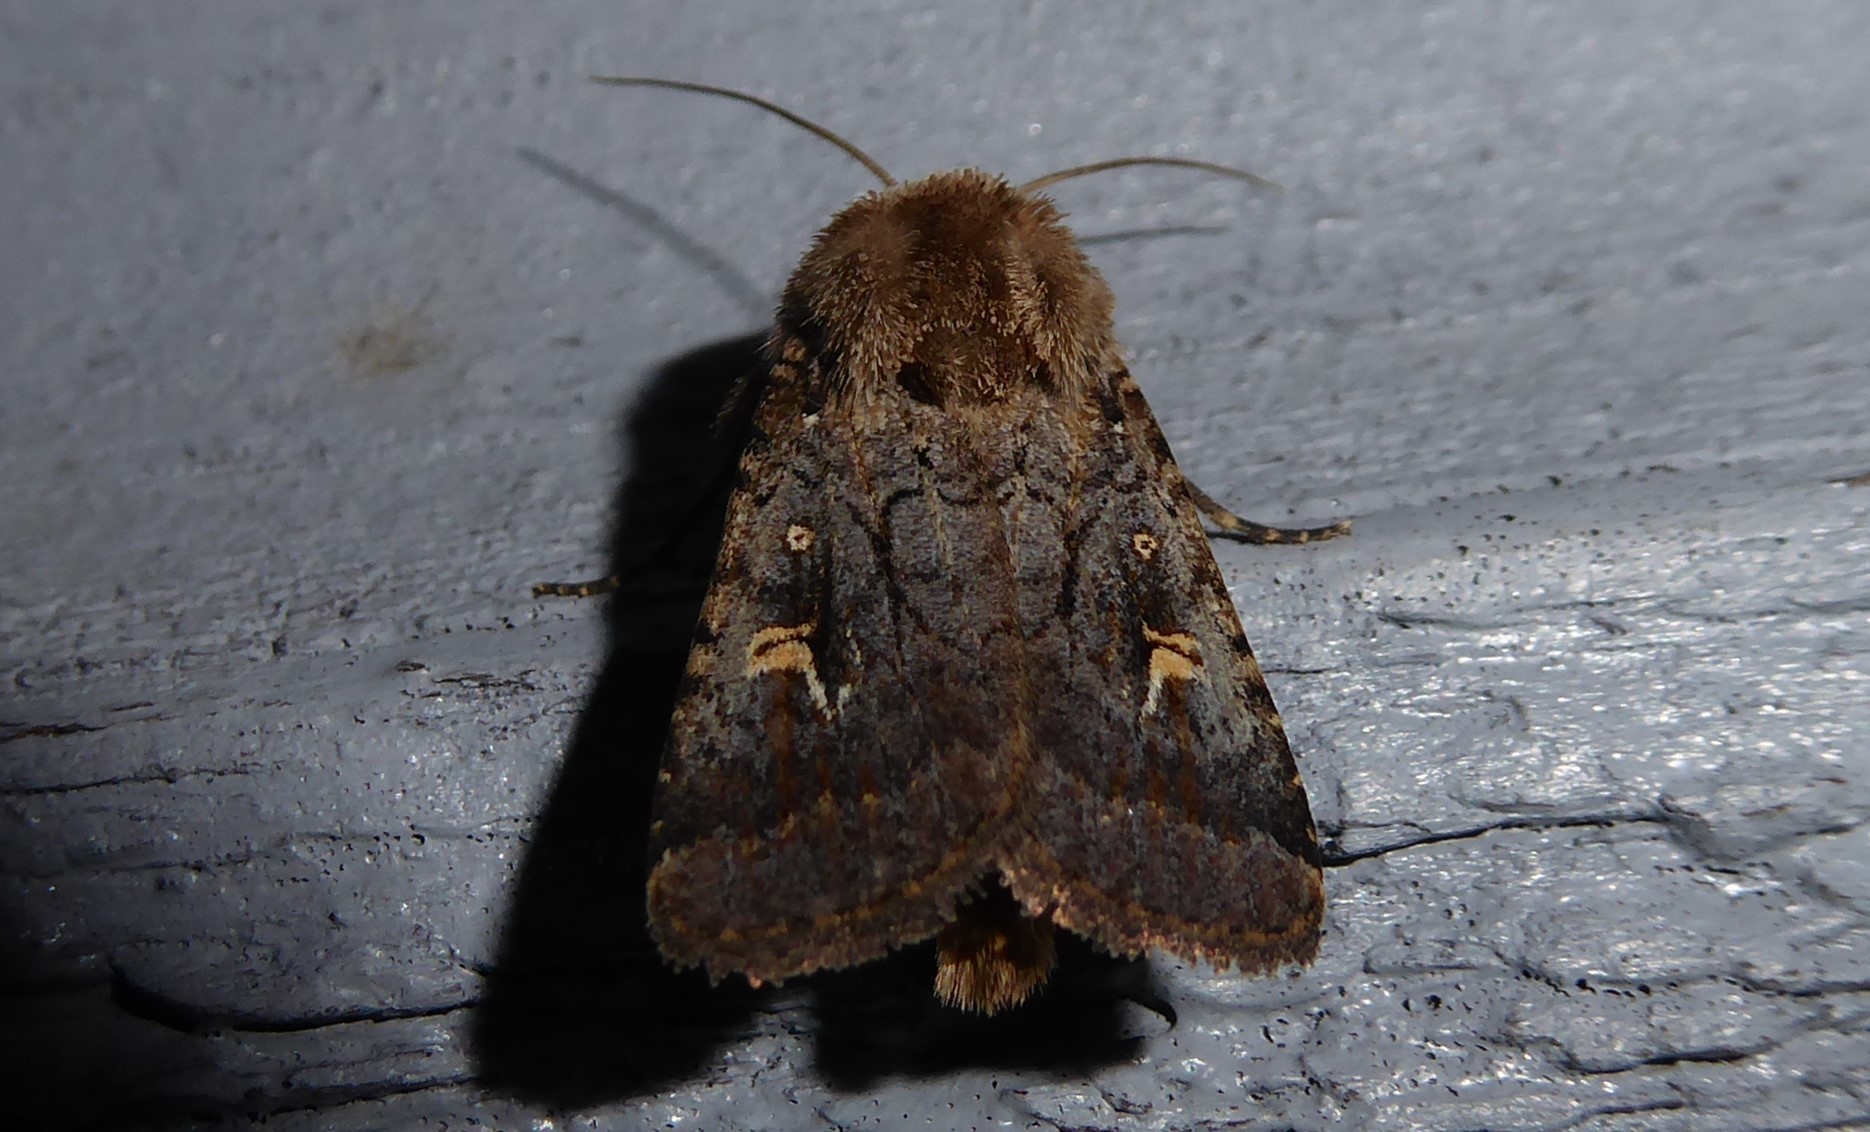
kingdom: Animalia
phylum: Arthropoda
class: Insecta
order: Lepidoptera
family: Noctuidae
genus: Proteuxoa
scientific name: Proteuxoa tetronycha
